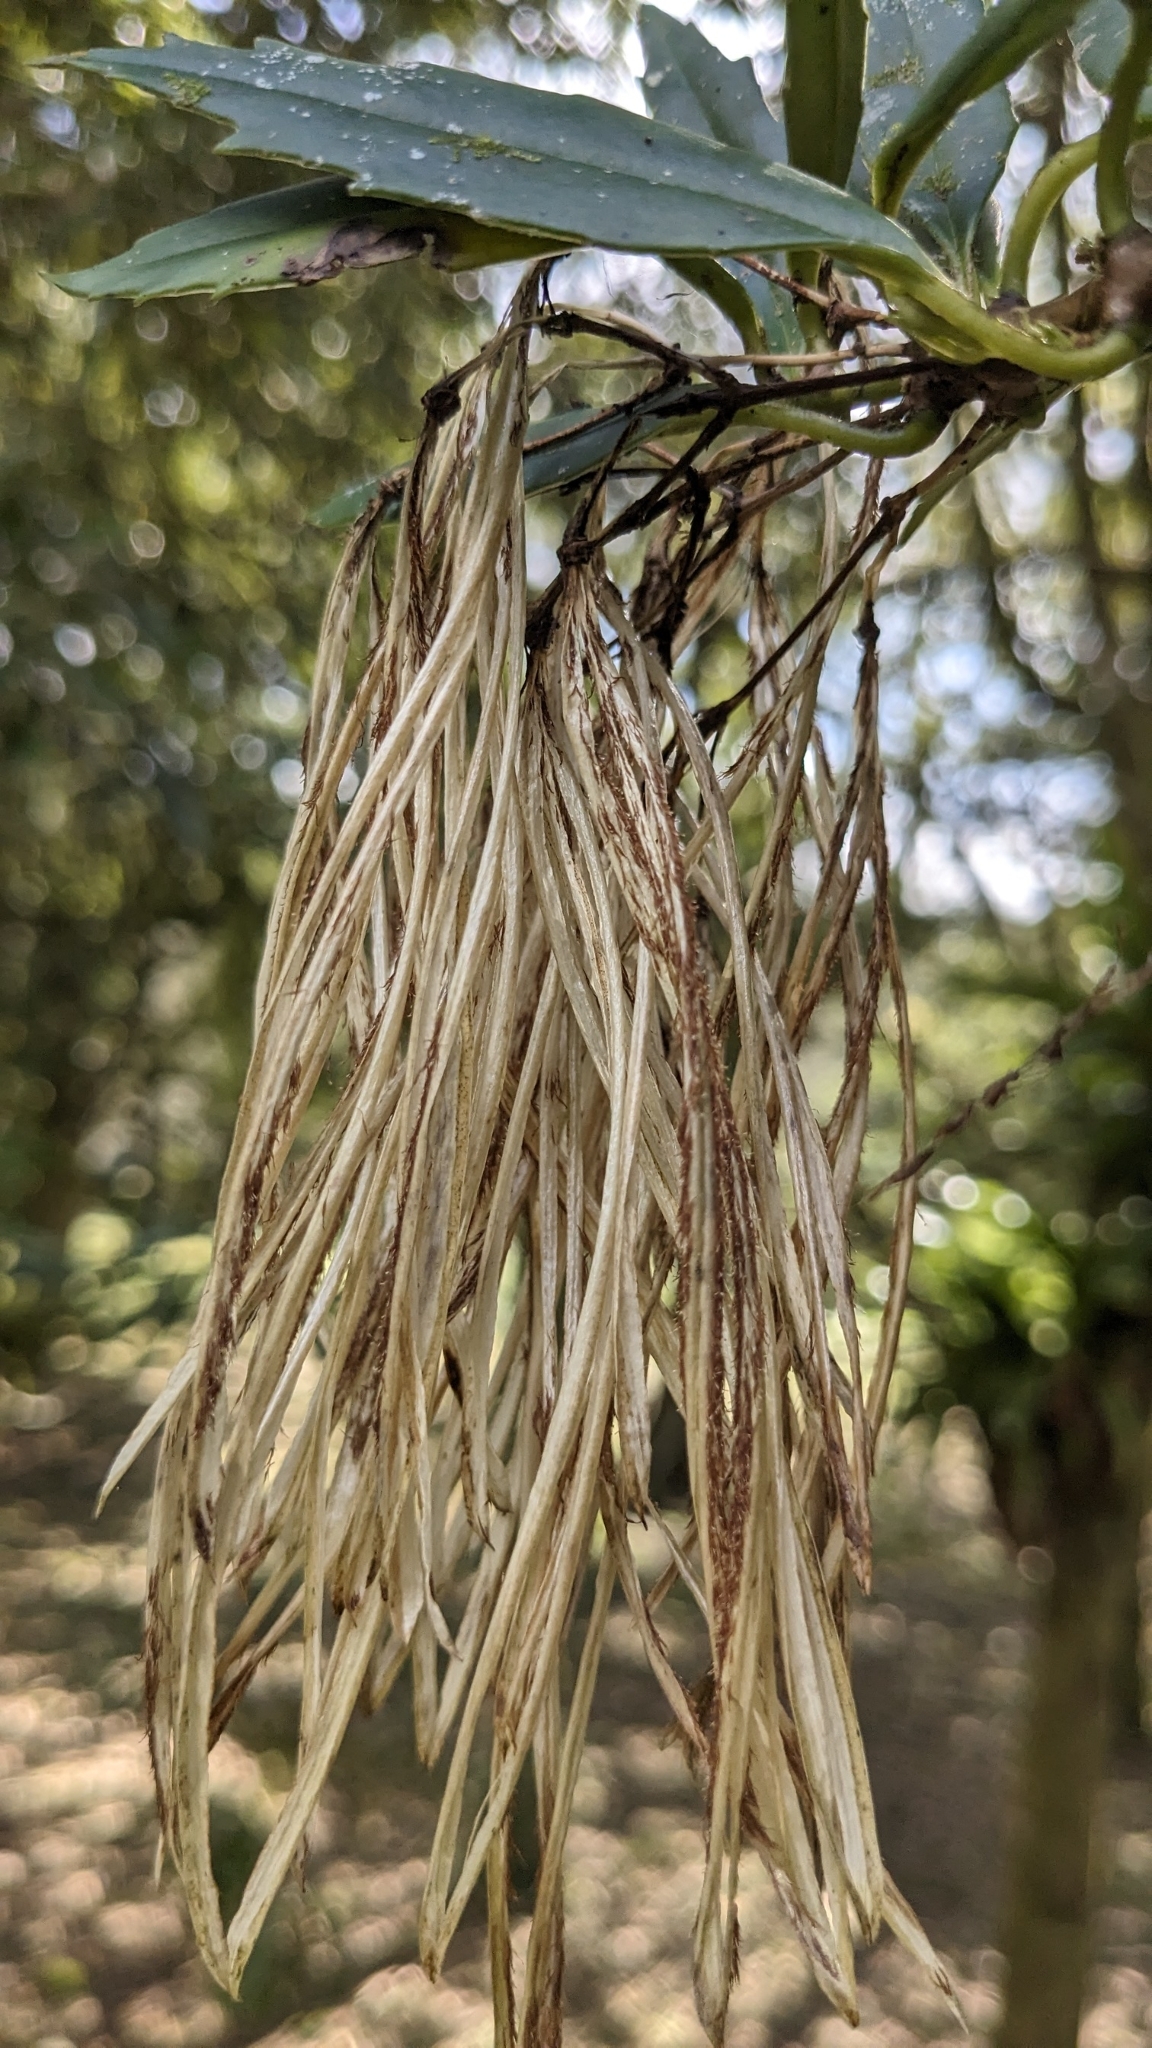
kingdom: Plantae
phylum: Tracheophyta
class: Magnoliopsida
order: Lamiales
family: Gesneriaceae
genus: Lysionotus
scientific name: Lysionotus pauciflorus
